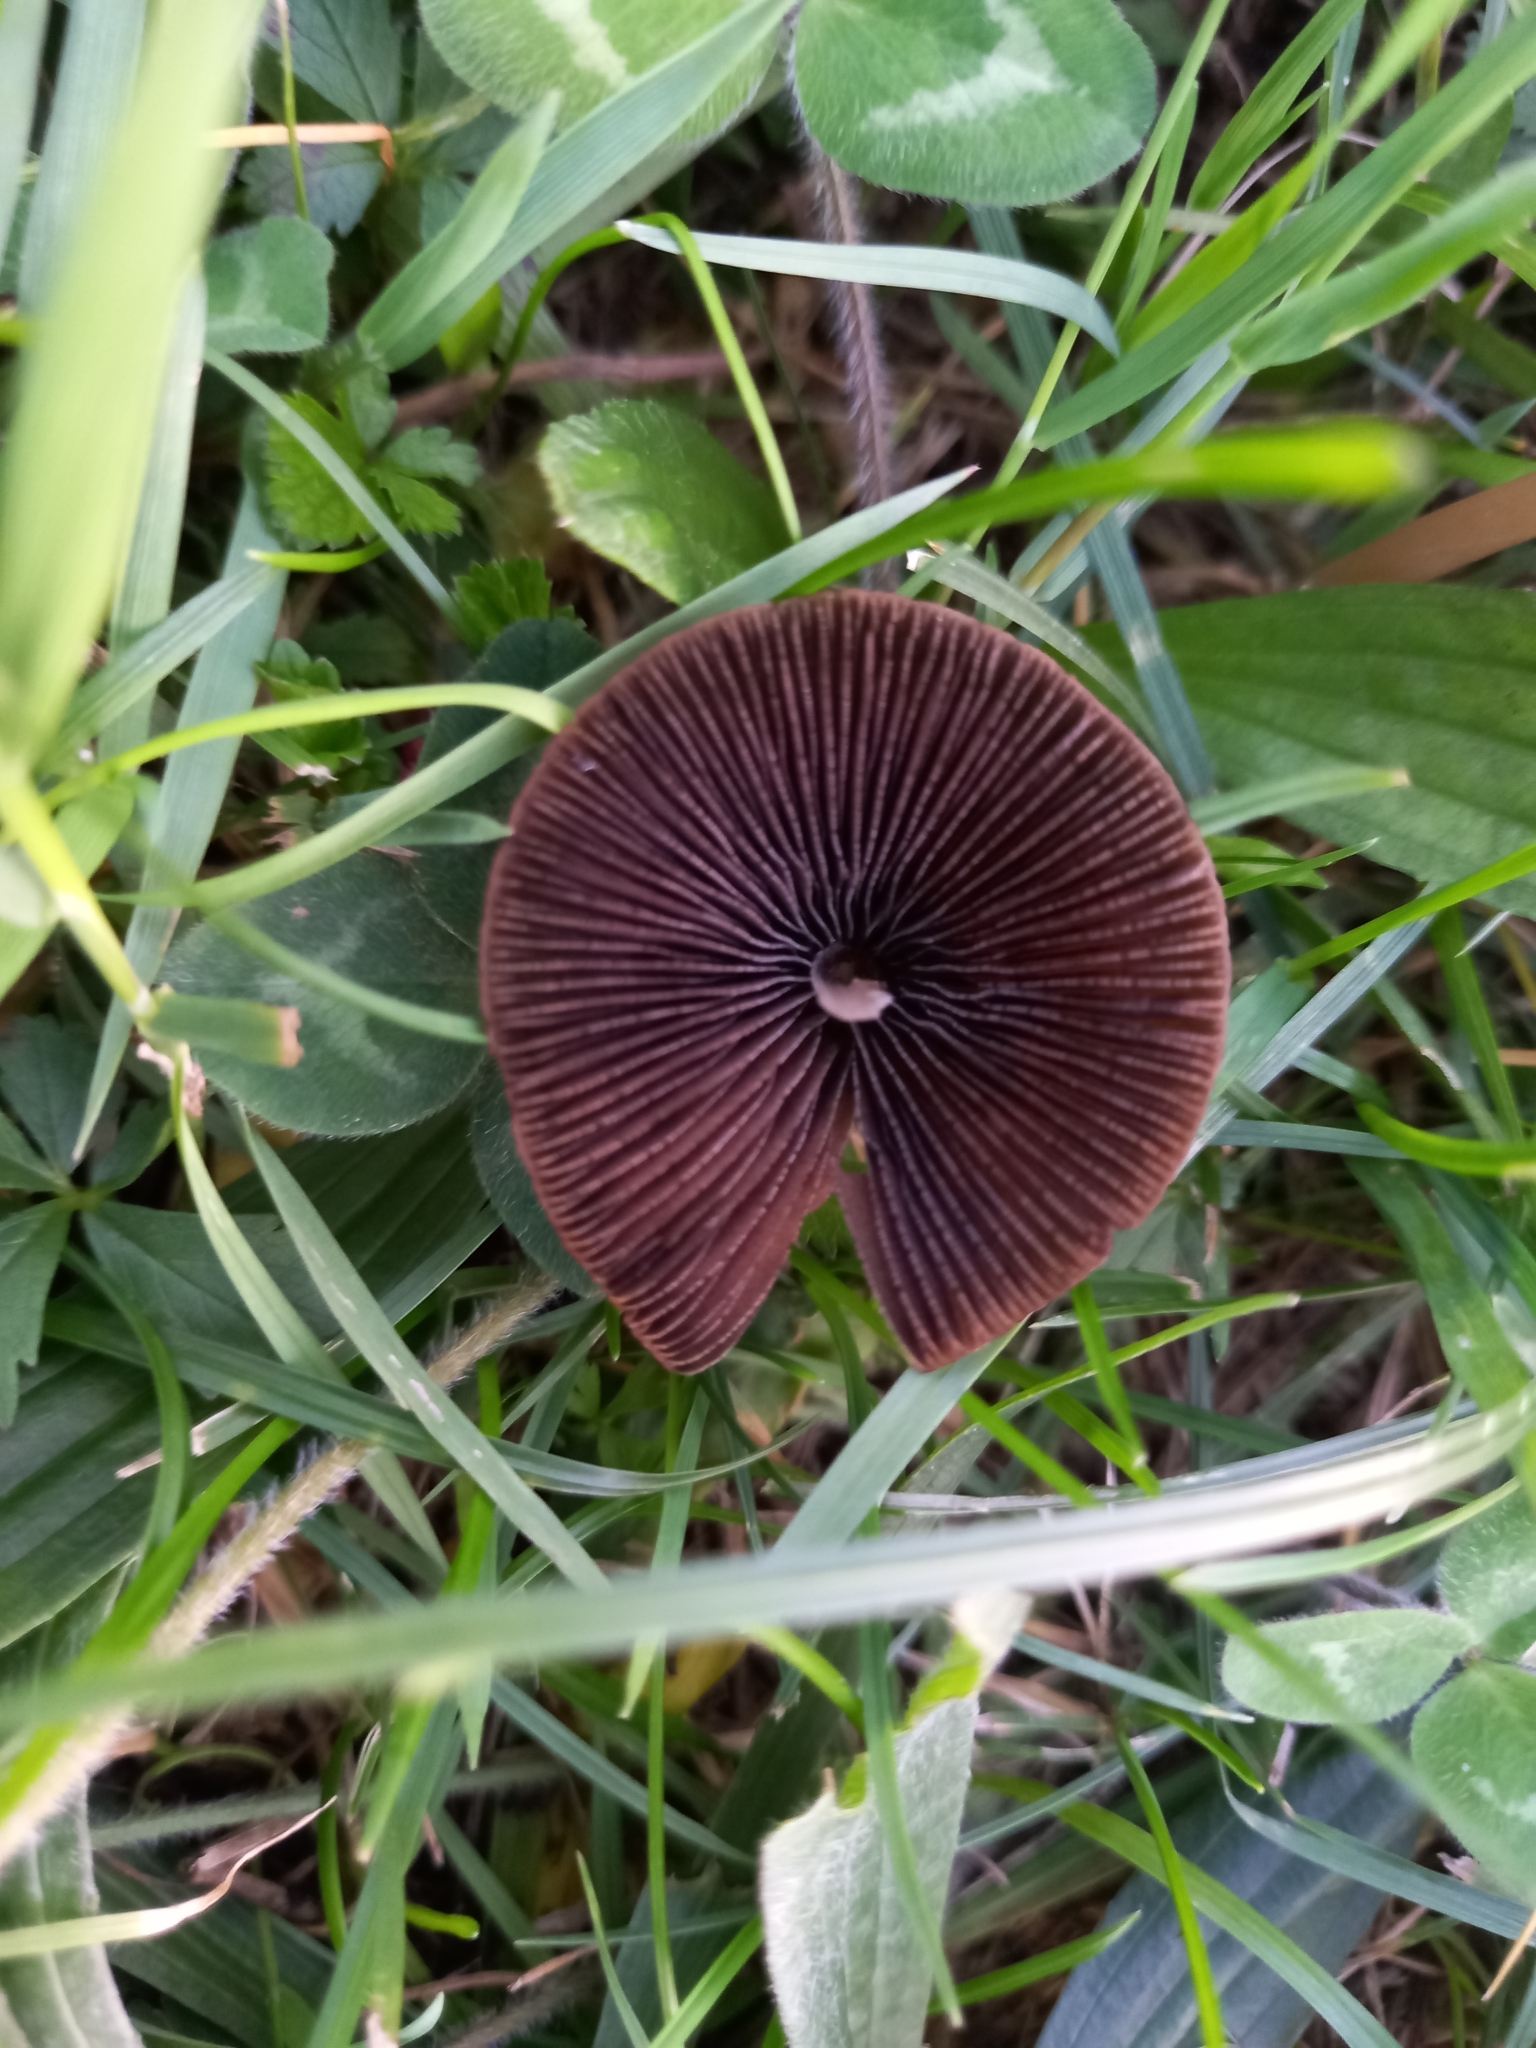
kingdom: Fungi
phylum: Basidiomycota
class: Agaricomycetes
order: Agaricales
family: Psathyrellaceae
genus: Parasola
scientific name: Parasola conopilea
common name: Conical brittlestem
